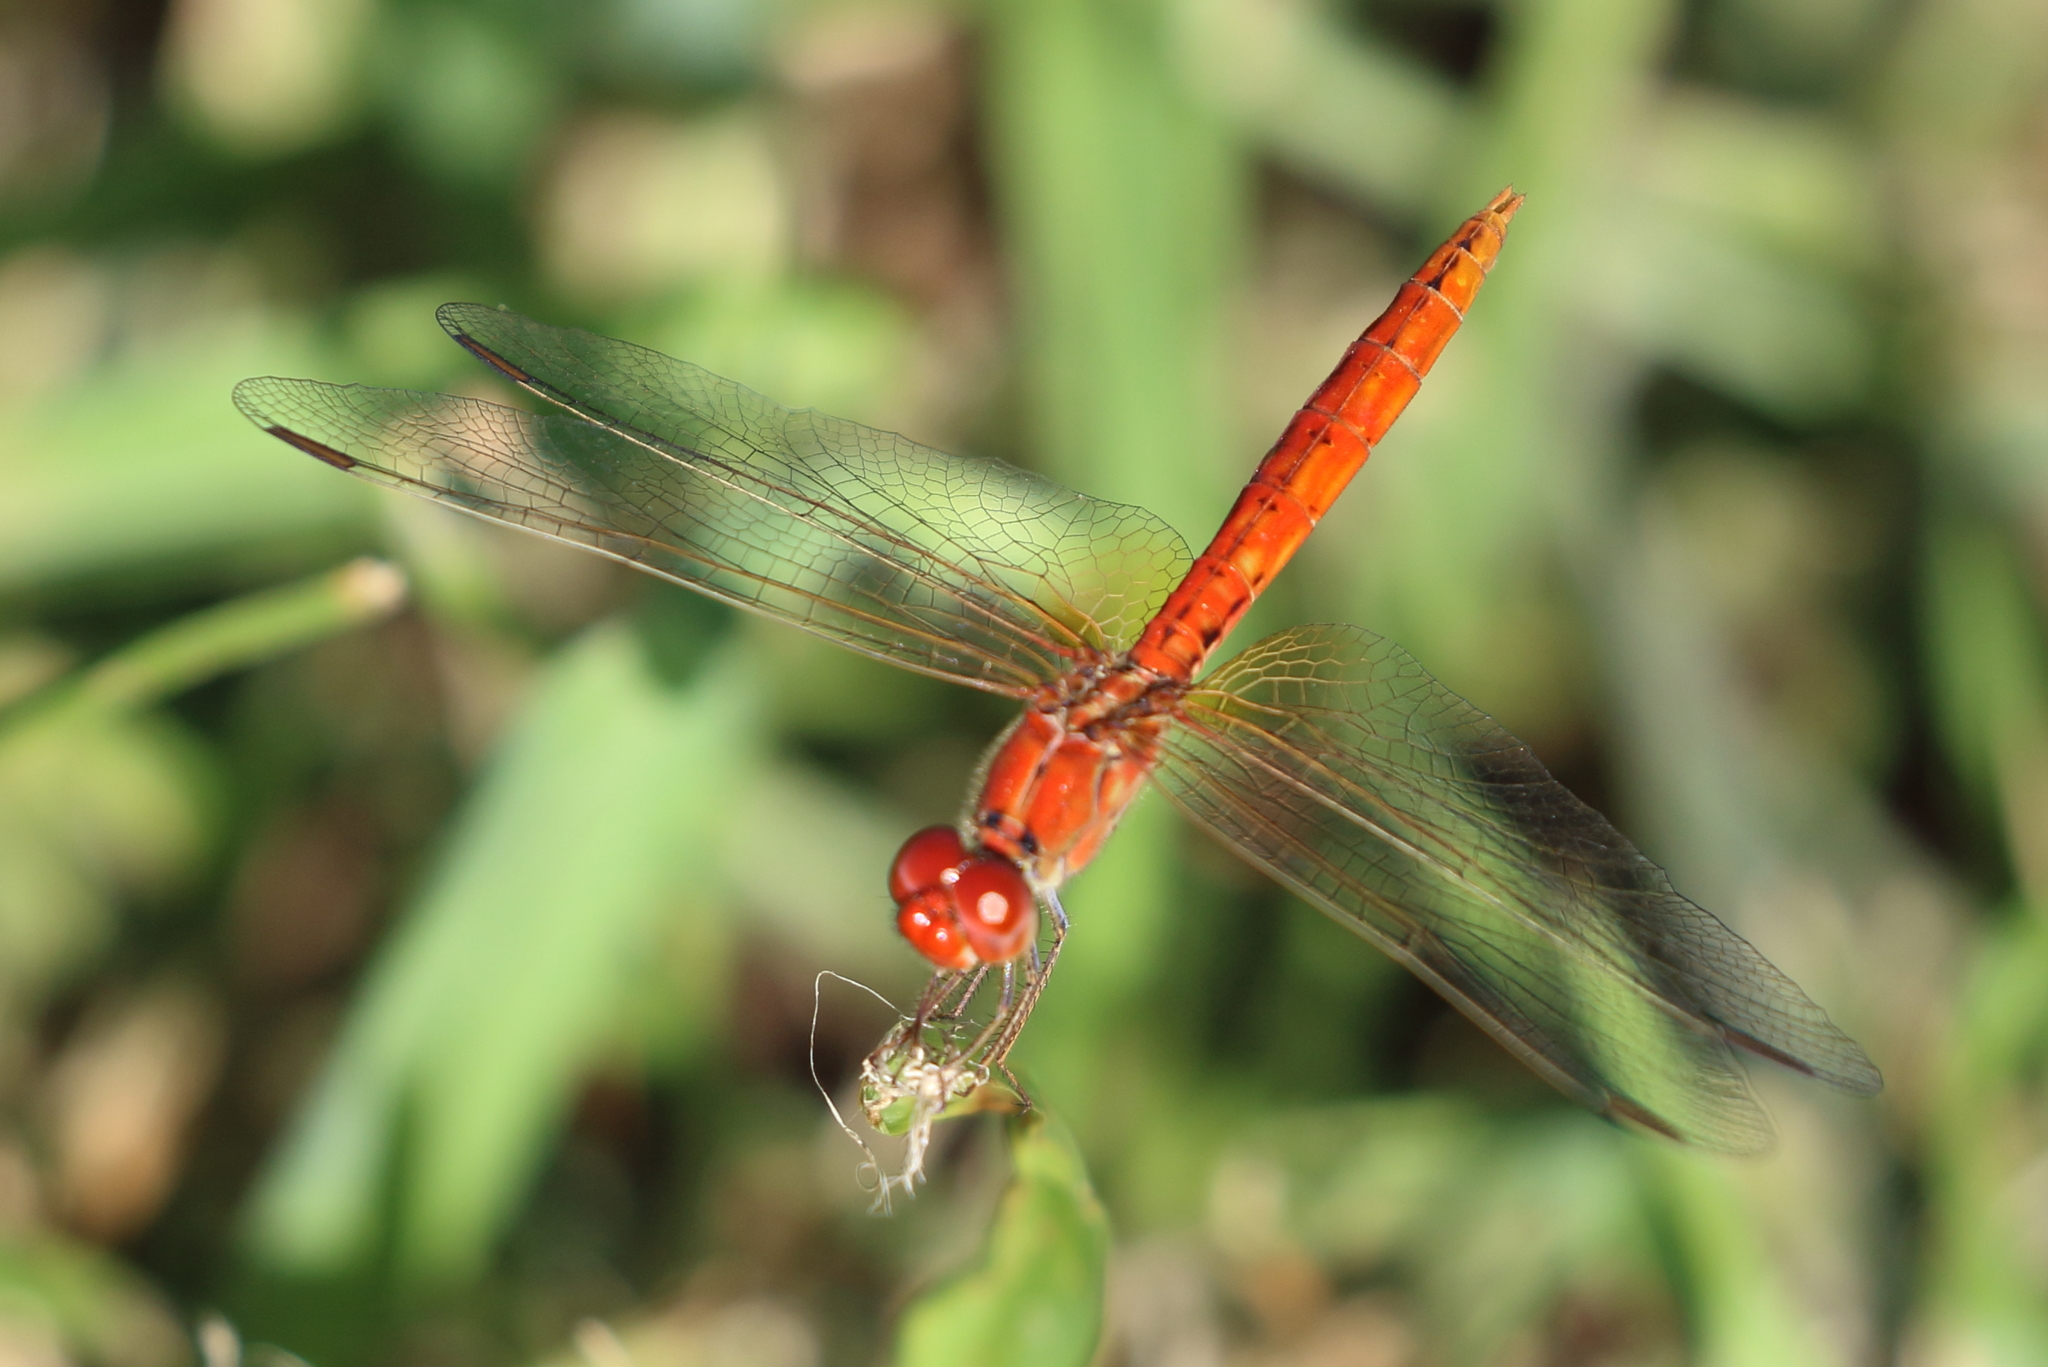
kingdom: Animalia
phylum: Arthropoda
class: Insecta
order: Odonata
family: Libellulidae
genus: Diplacodes
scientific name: Diplacodes haematodes
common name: Scarlet percher
